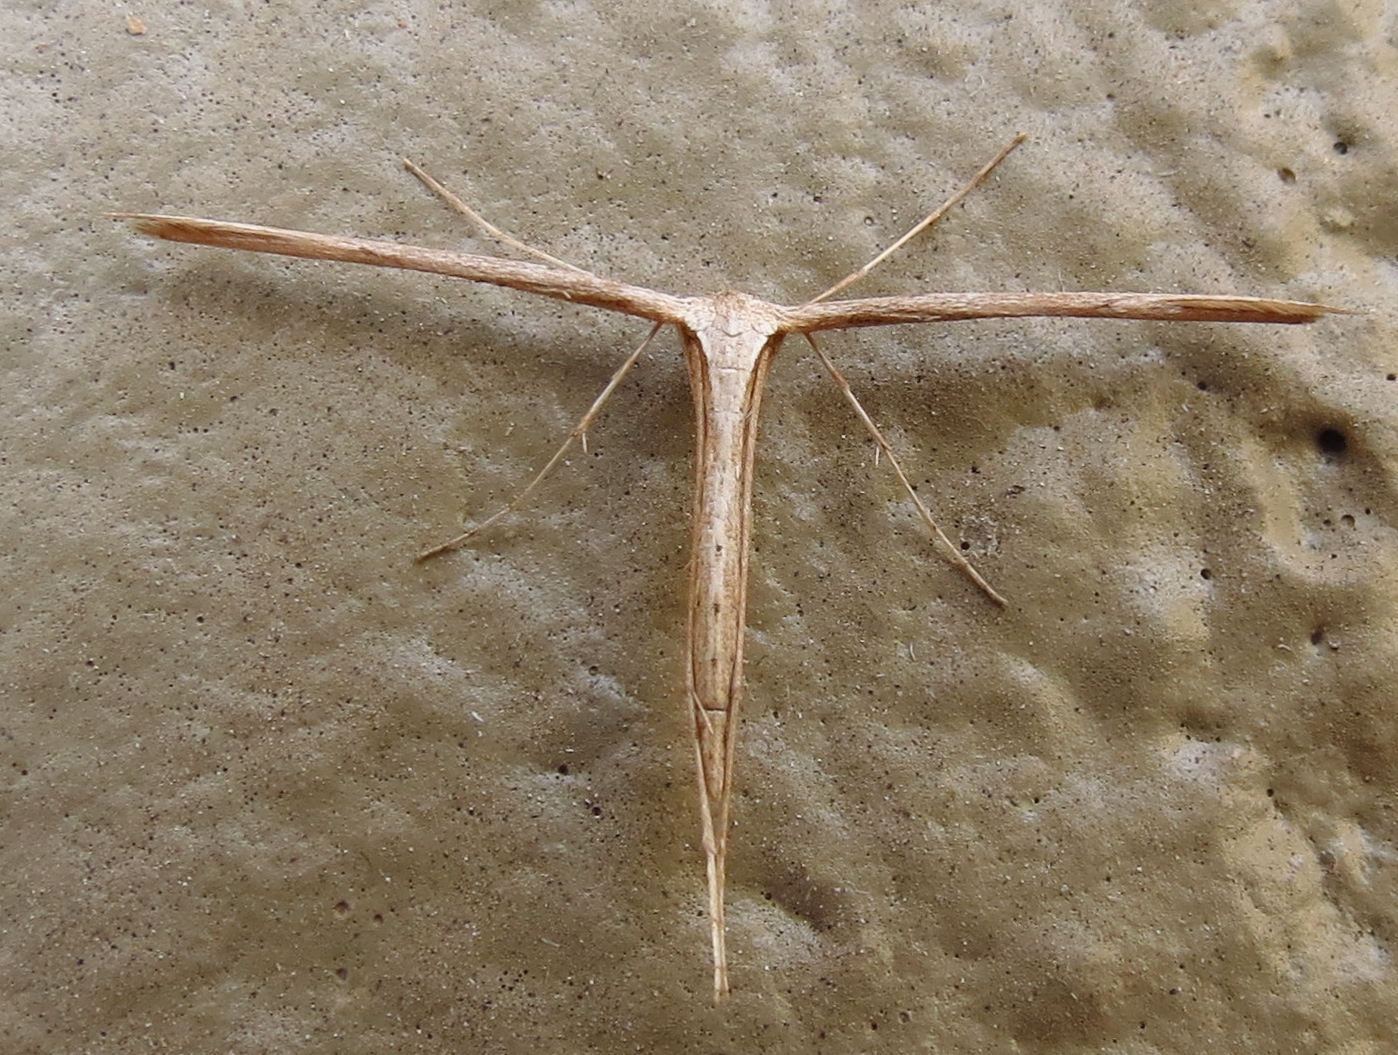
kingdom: Animalia
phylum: Arthropoda
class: Insecta
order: Lepidoptera
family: Pterophoridae
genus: Emmelina
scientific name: Emmelina monodactyla
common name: Common plume
